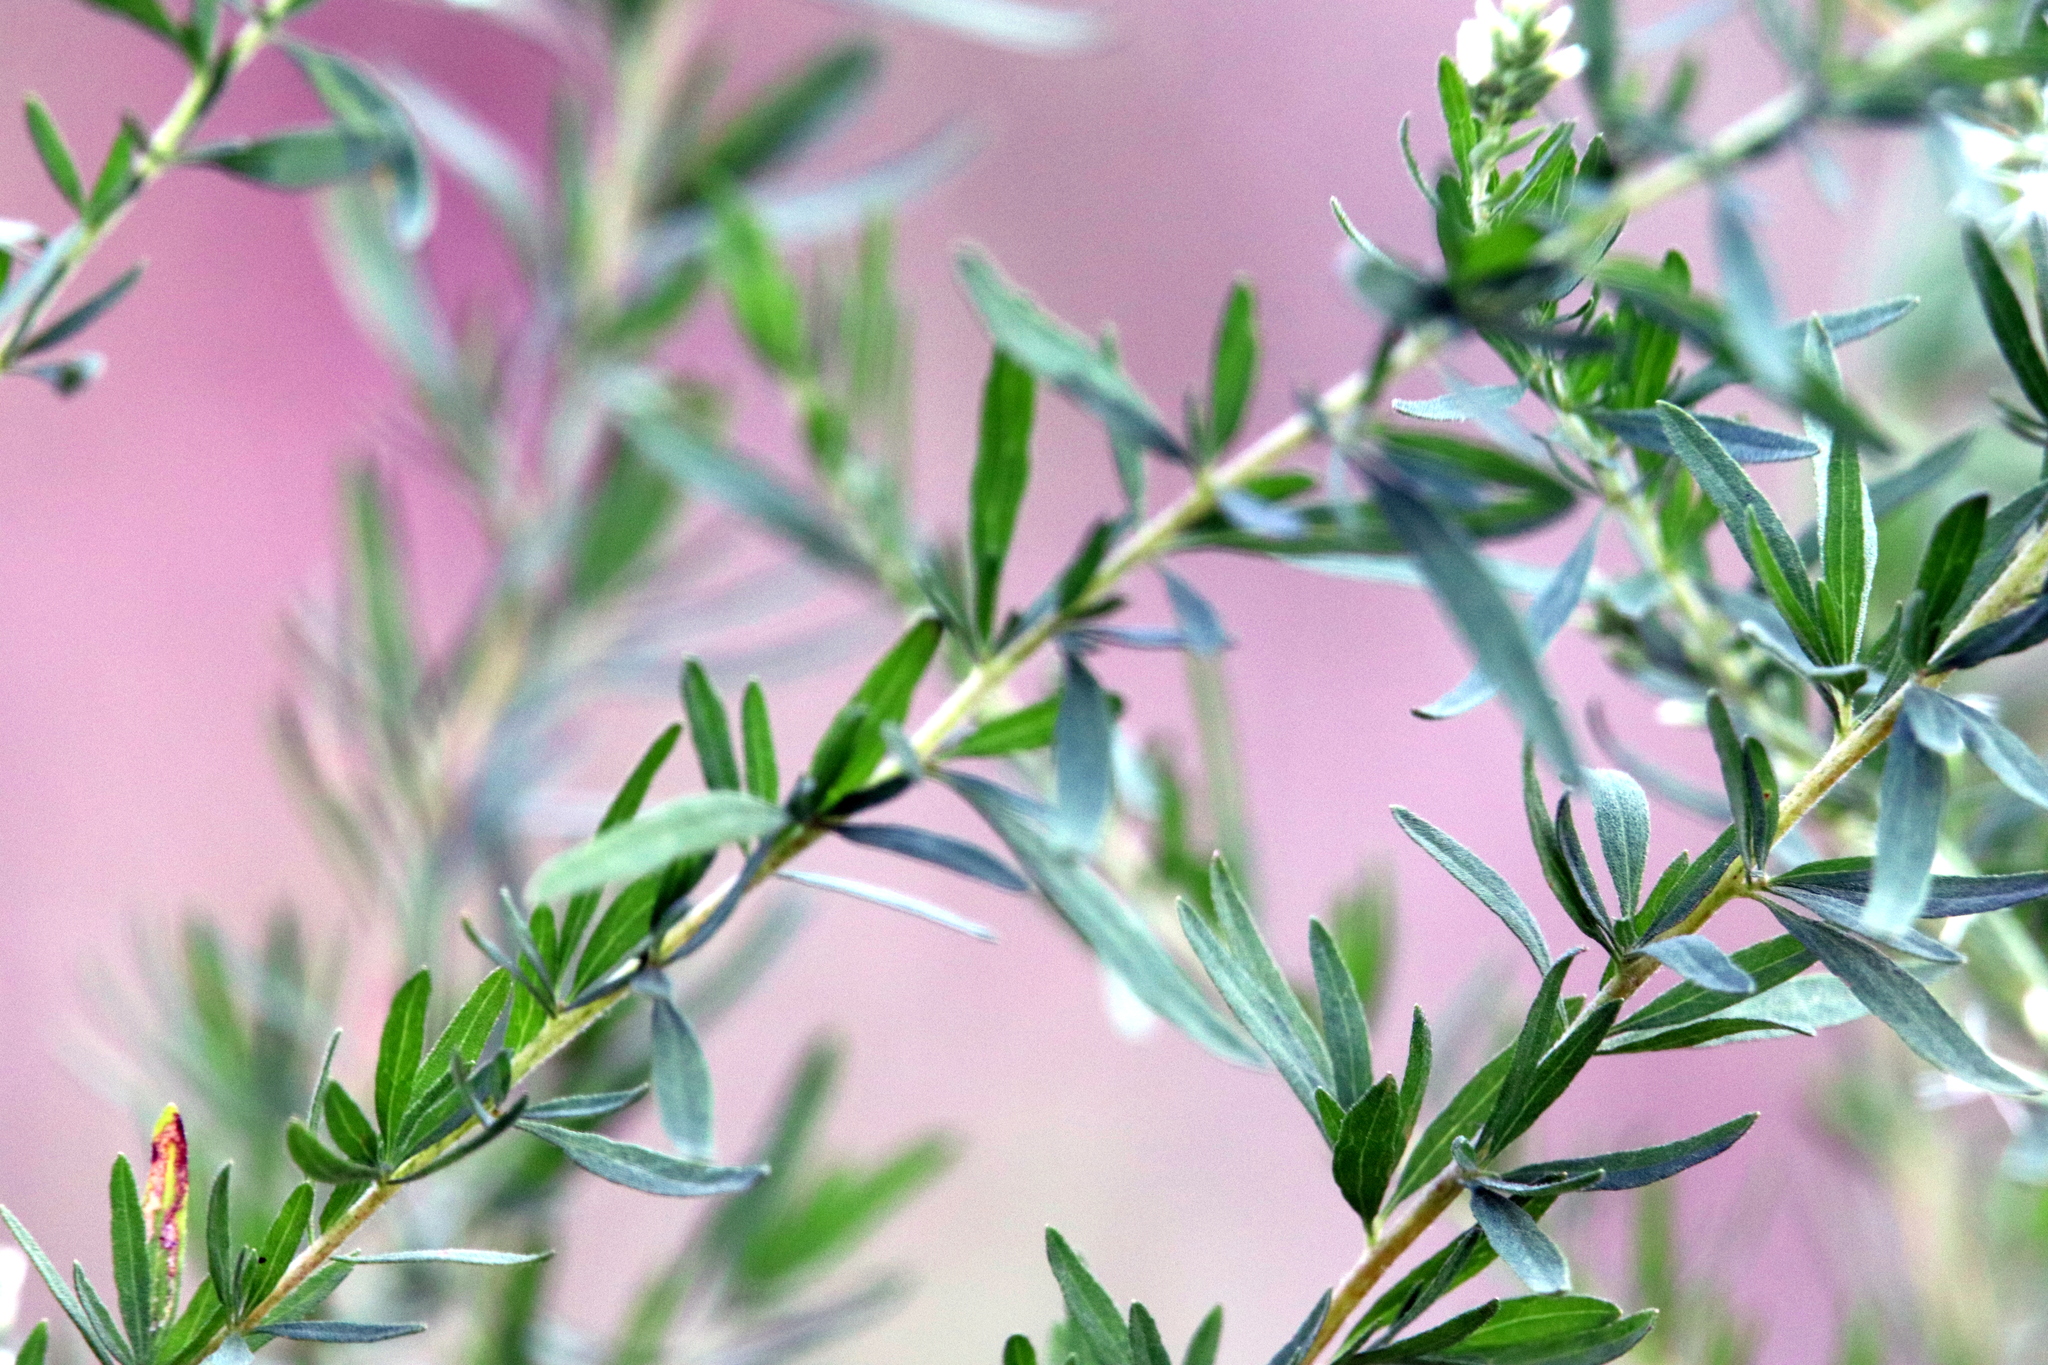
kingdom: Plantae
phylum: Tracheophyta
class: Magnoliopsida
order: Asterales
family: Asteraceae
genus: Eupatorium
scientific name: Eupatorium compositifolium
